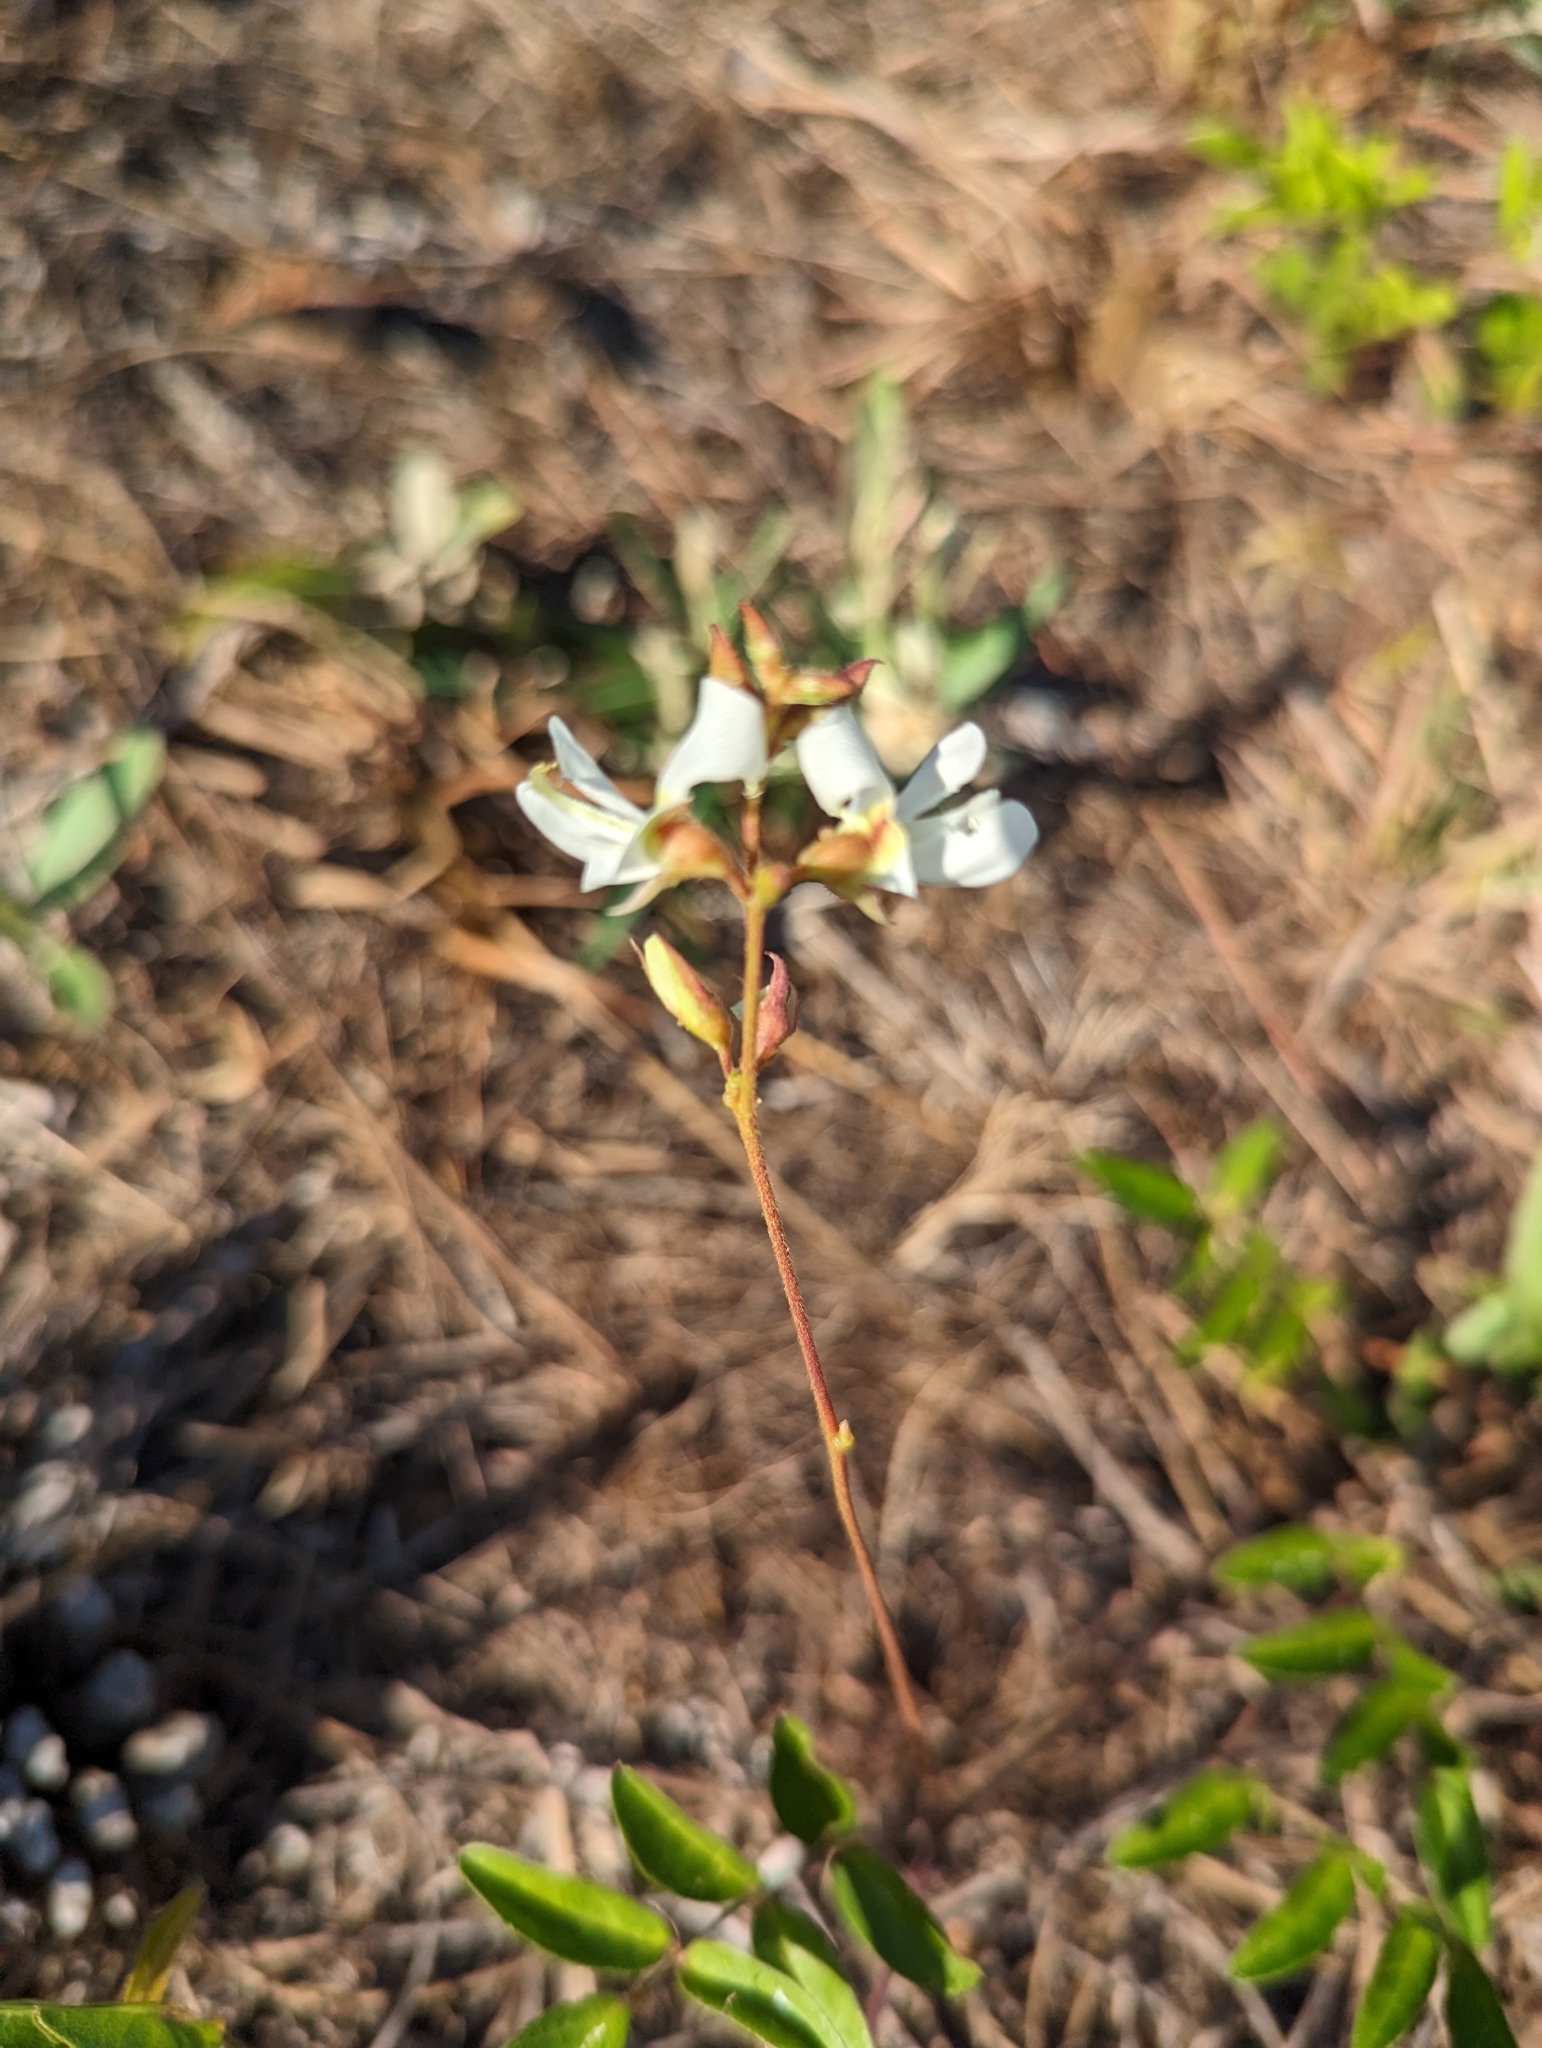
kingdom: Plantae
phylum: Tracheophyta
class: Magnoliopsida
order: Fabales
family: Fabaceae
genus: Galactia
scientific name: Galactia elliottii
